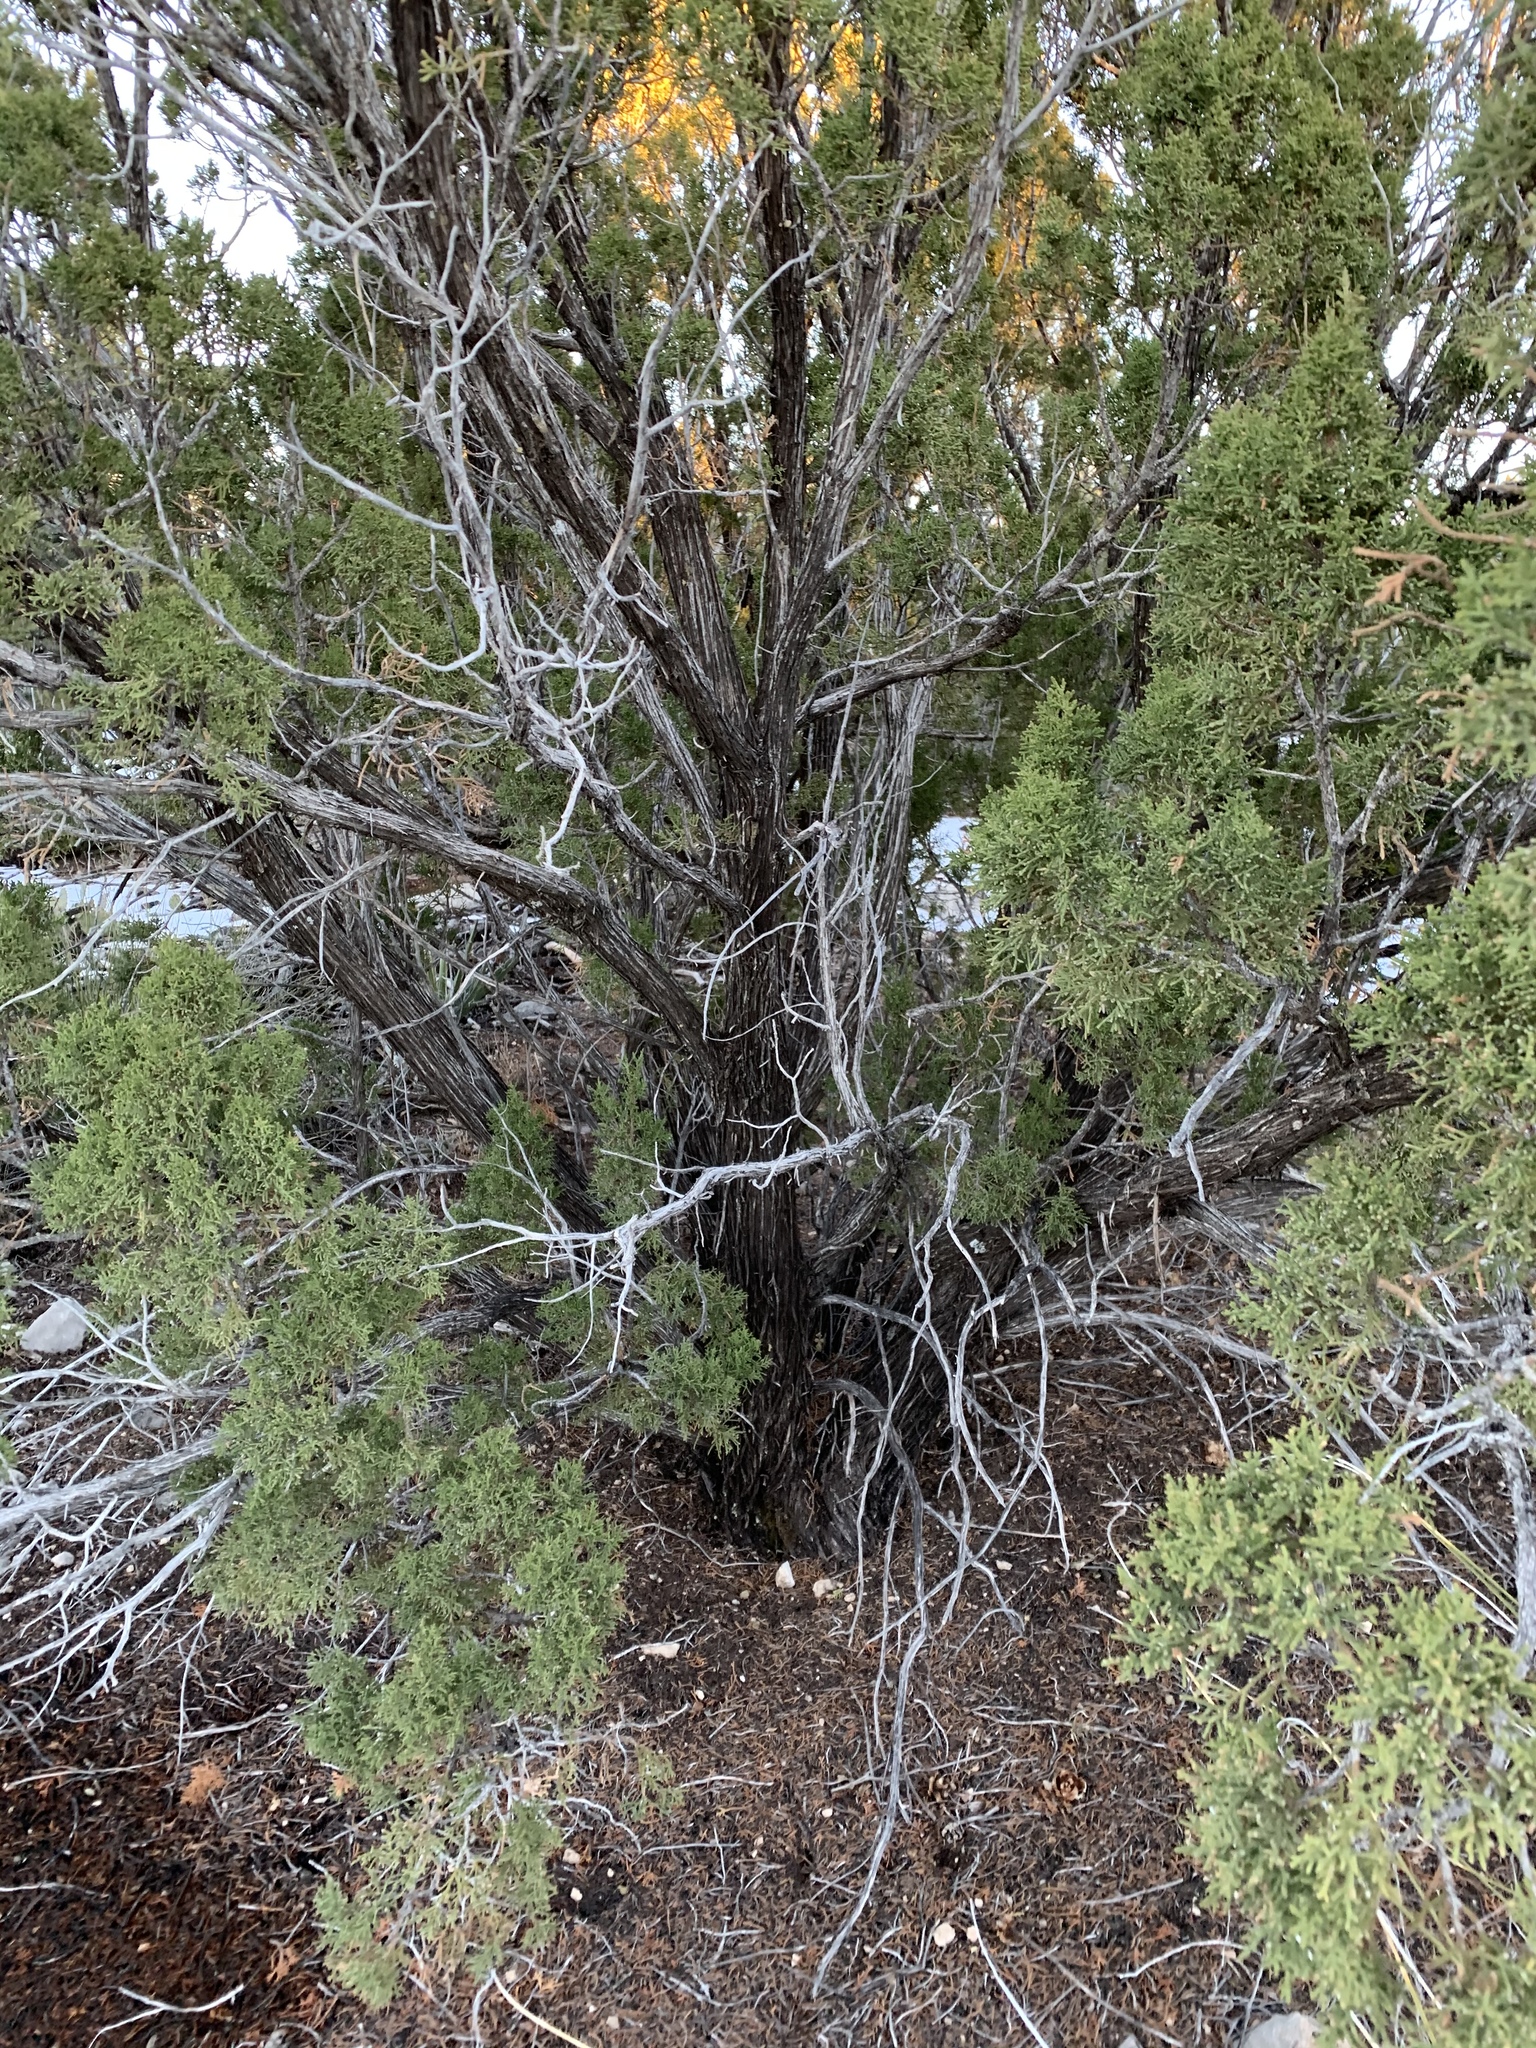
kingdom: Plantae
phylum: Tracheophyta
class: Pinopsida
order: Pinales
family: Cupressaceae
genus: Juniperus
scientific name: Juniperus monosperma
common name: One-seed juniper
